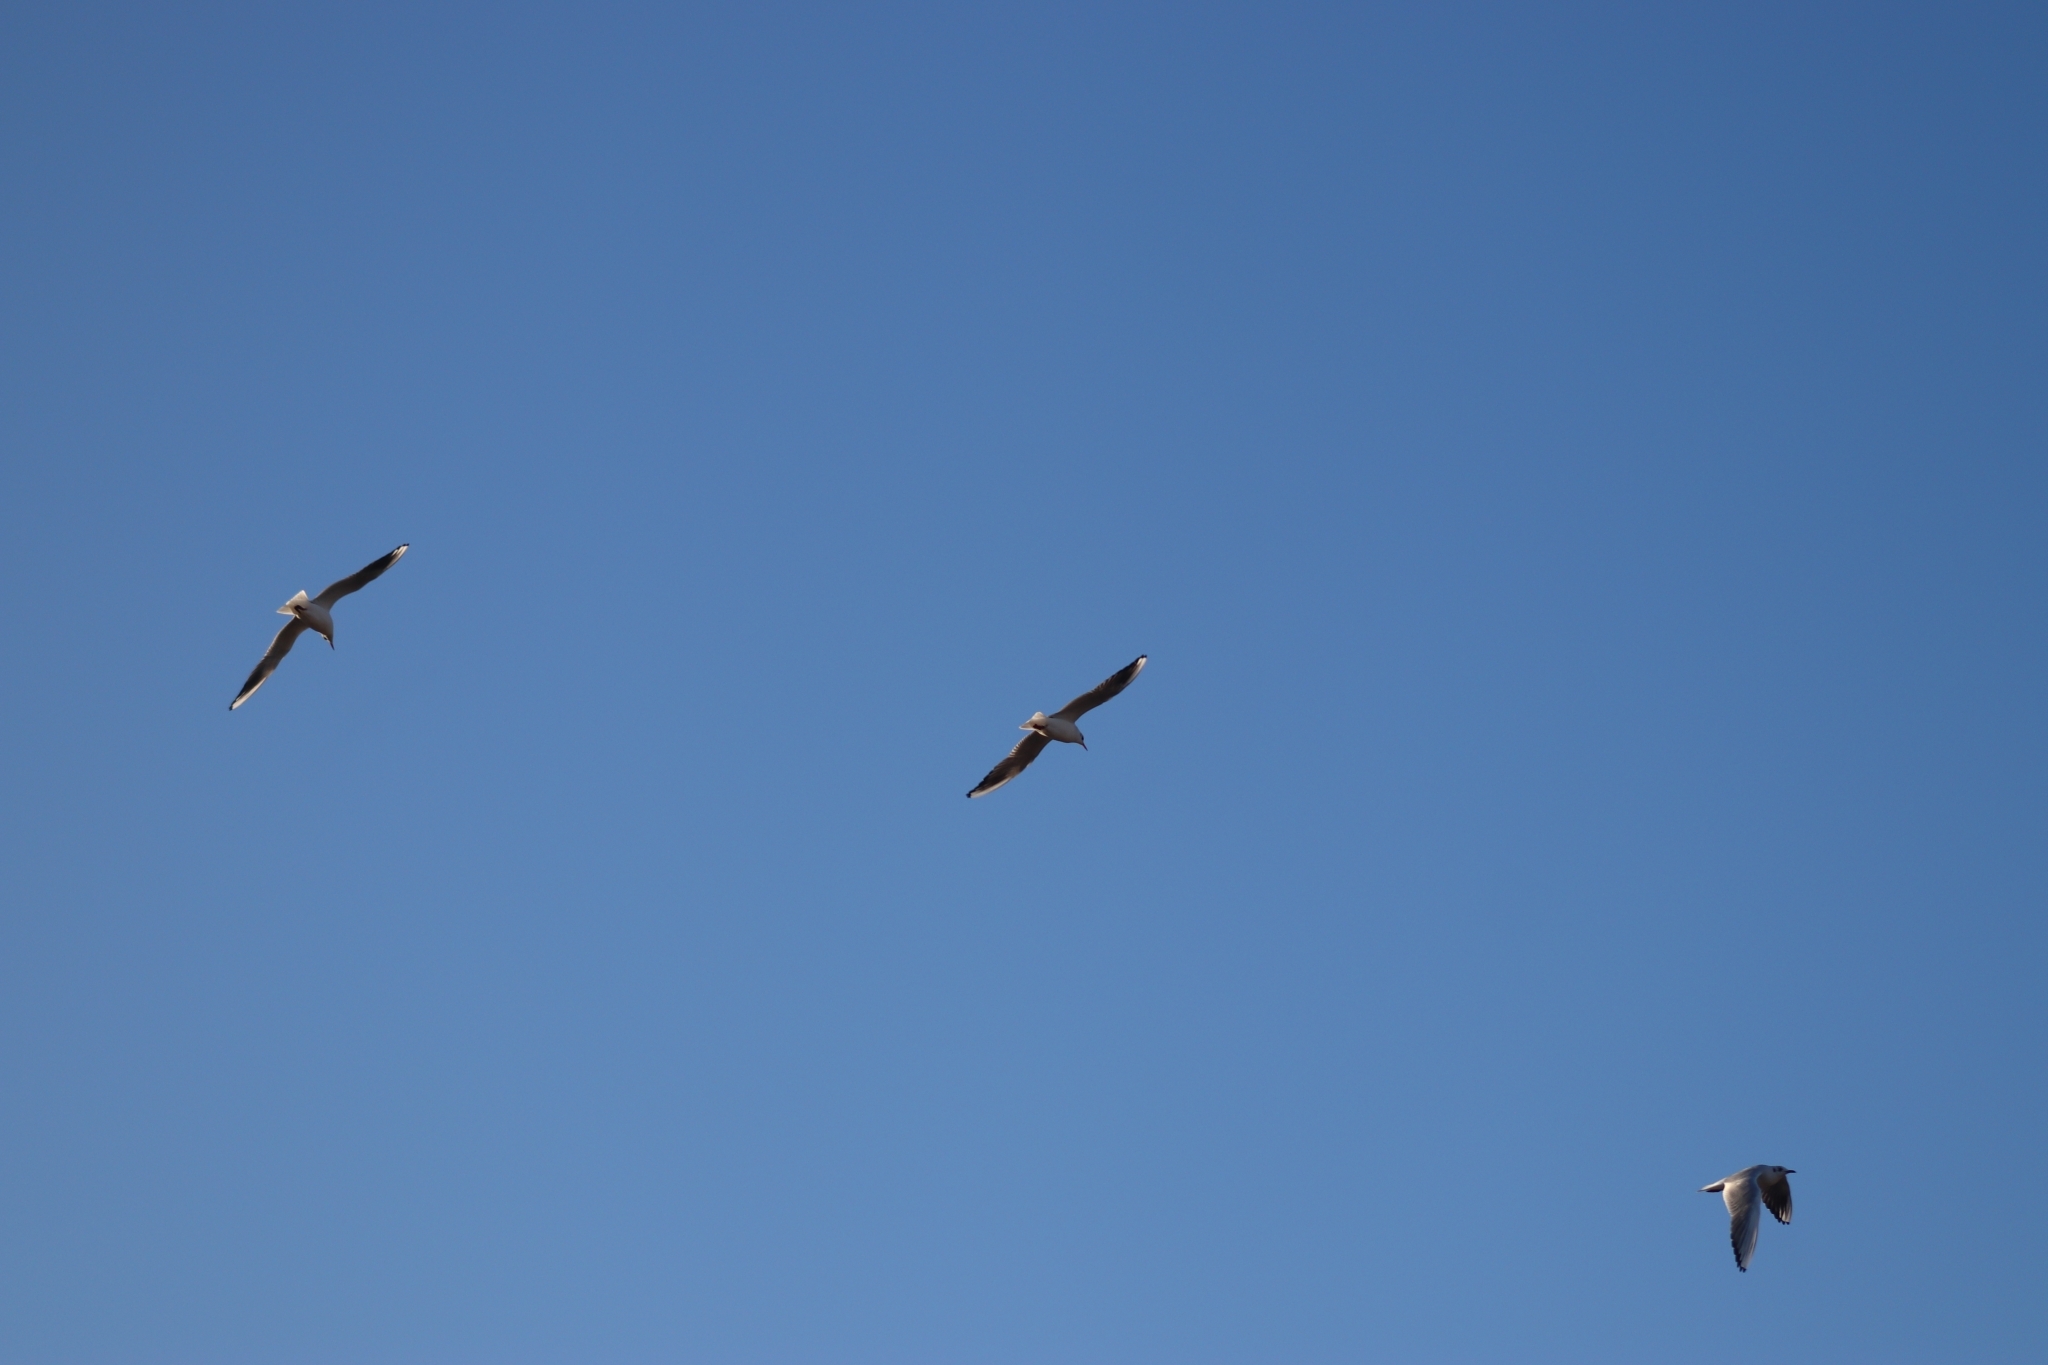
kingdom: Animalia
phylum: Chordata
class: Aves
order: Charadriiformes
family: Laridae
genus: Chroicocephalus
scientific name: Chroicocephalus ridibundus
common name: Black-headed gull
